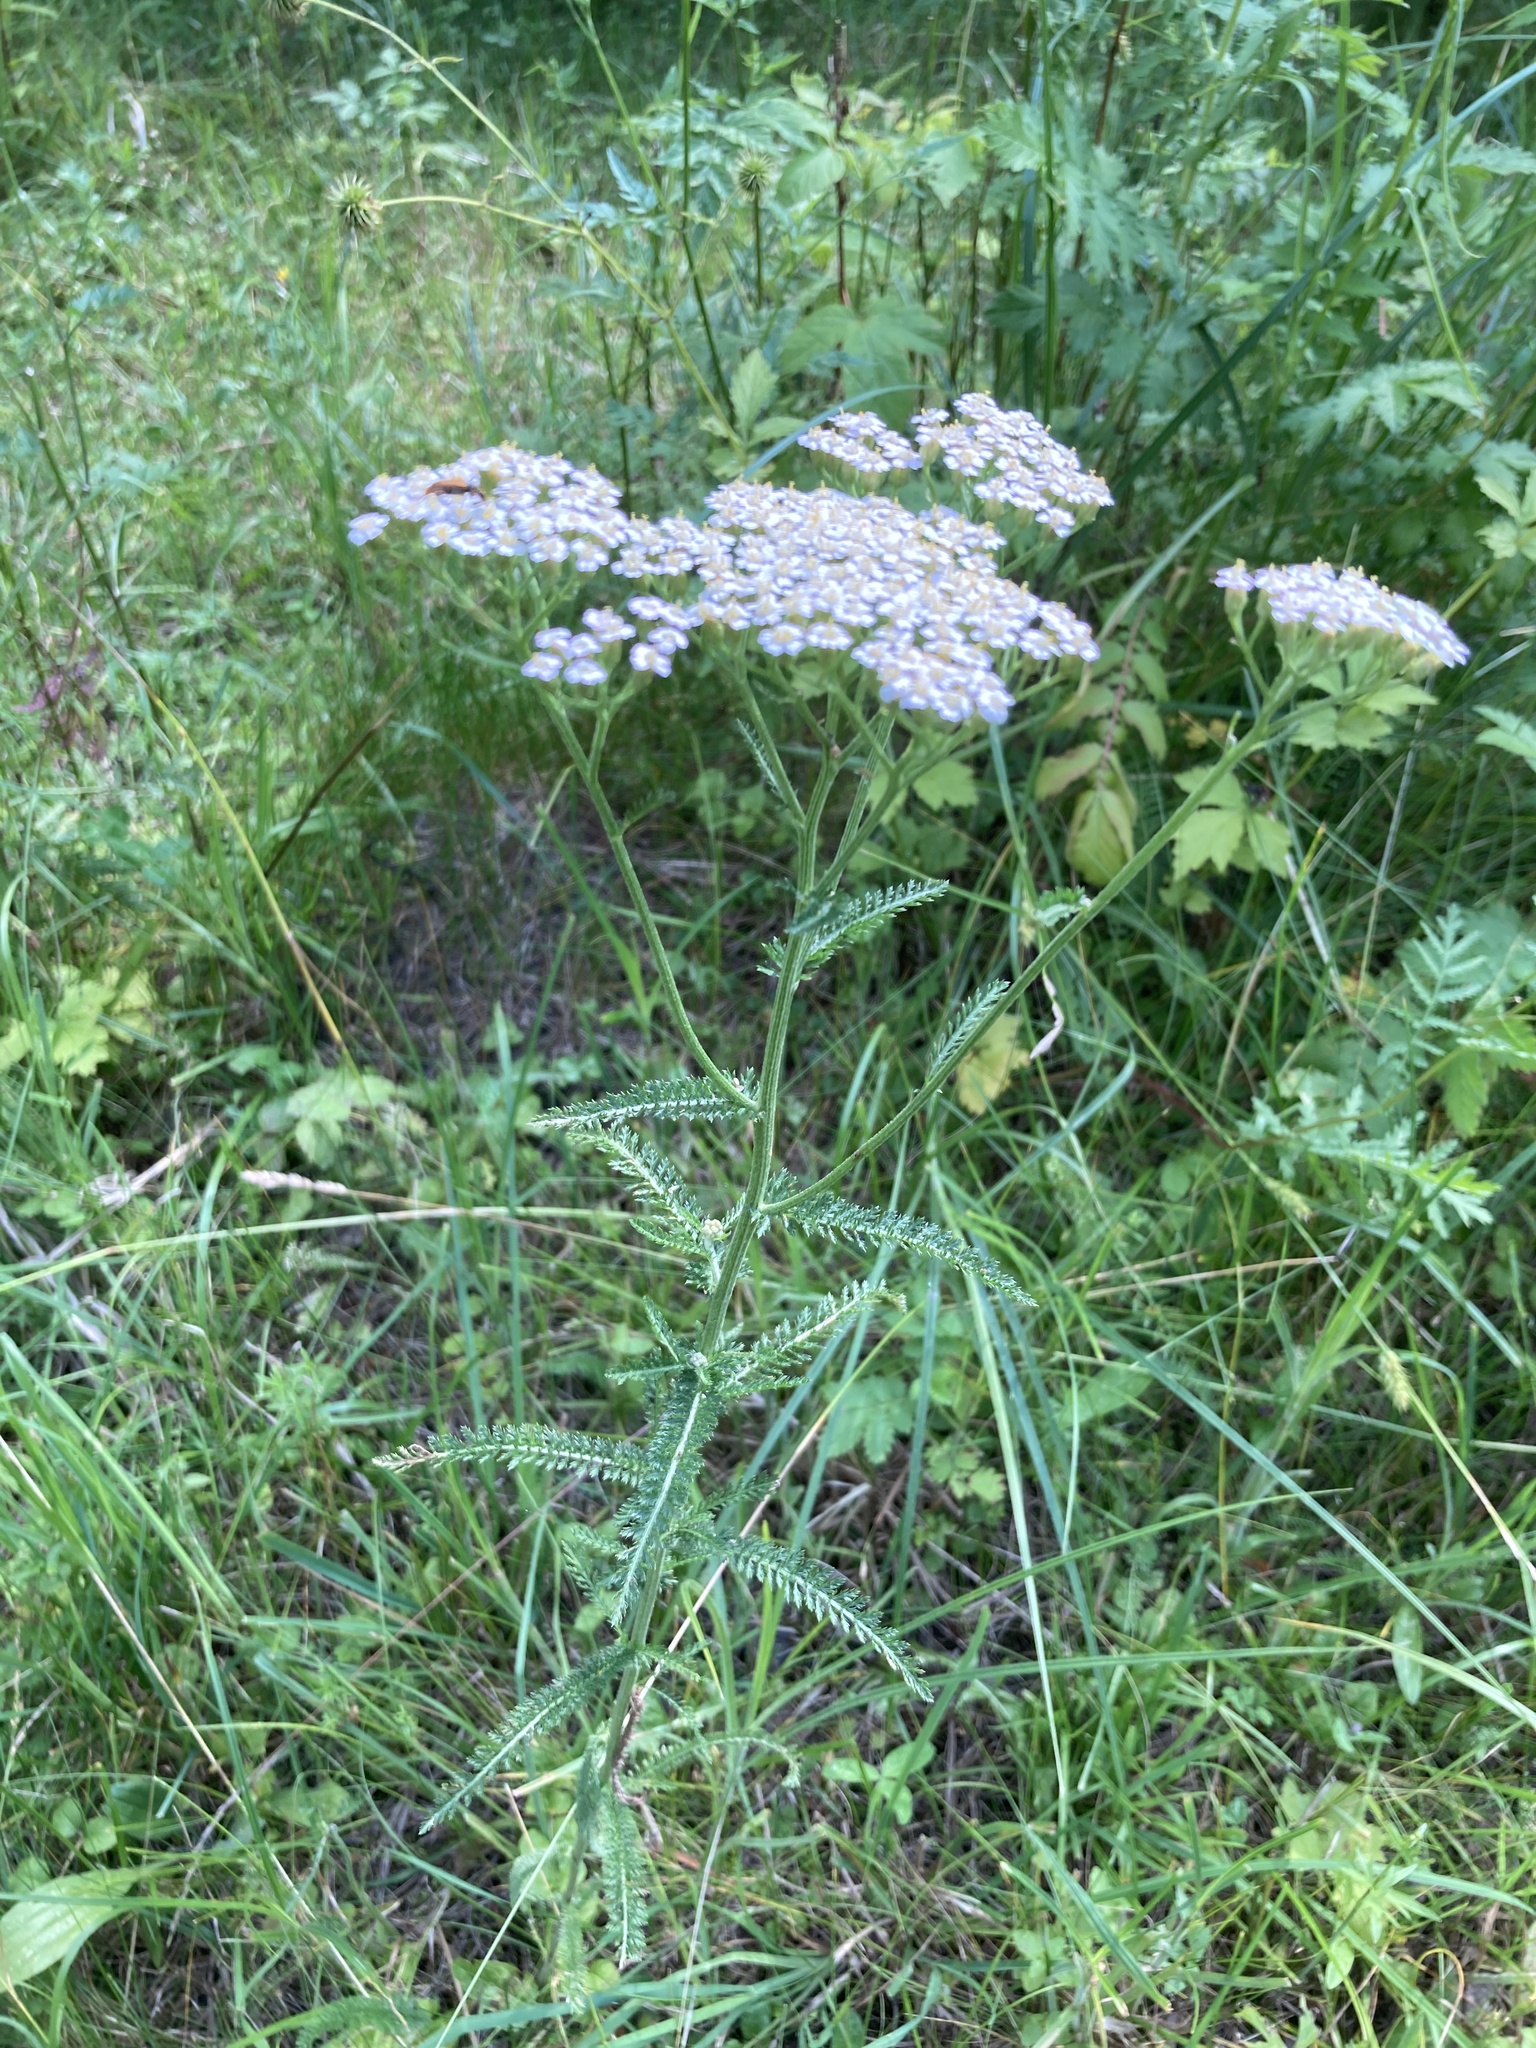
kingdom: Plantae
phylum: Tracheophyta
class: Magnoliopsida
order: Asterales
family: Asteraceae
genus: Achillea
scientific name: Achillea millefolium
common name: Yarrow
